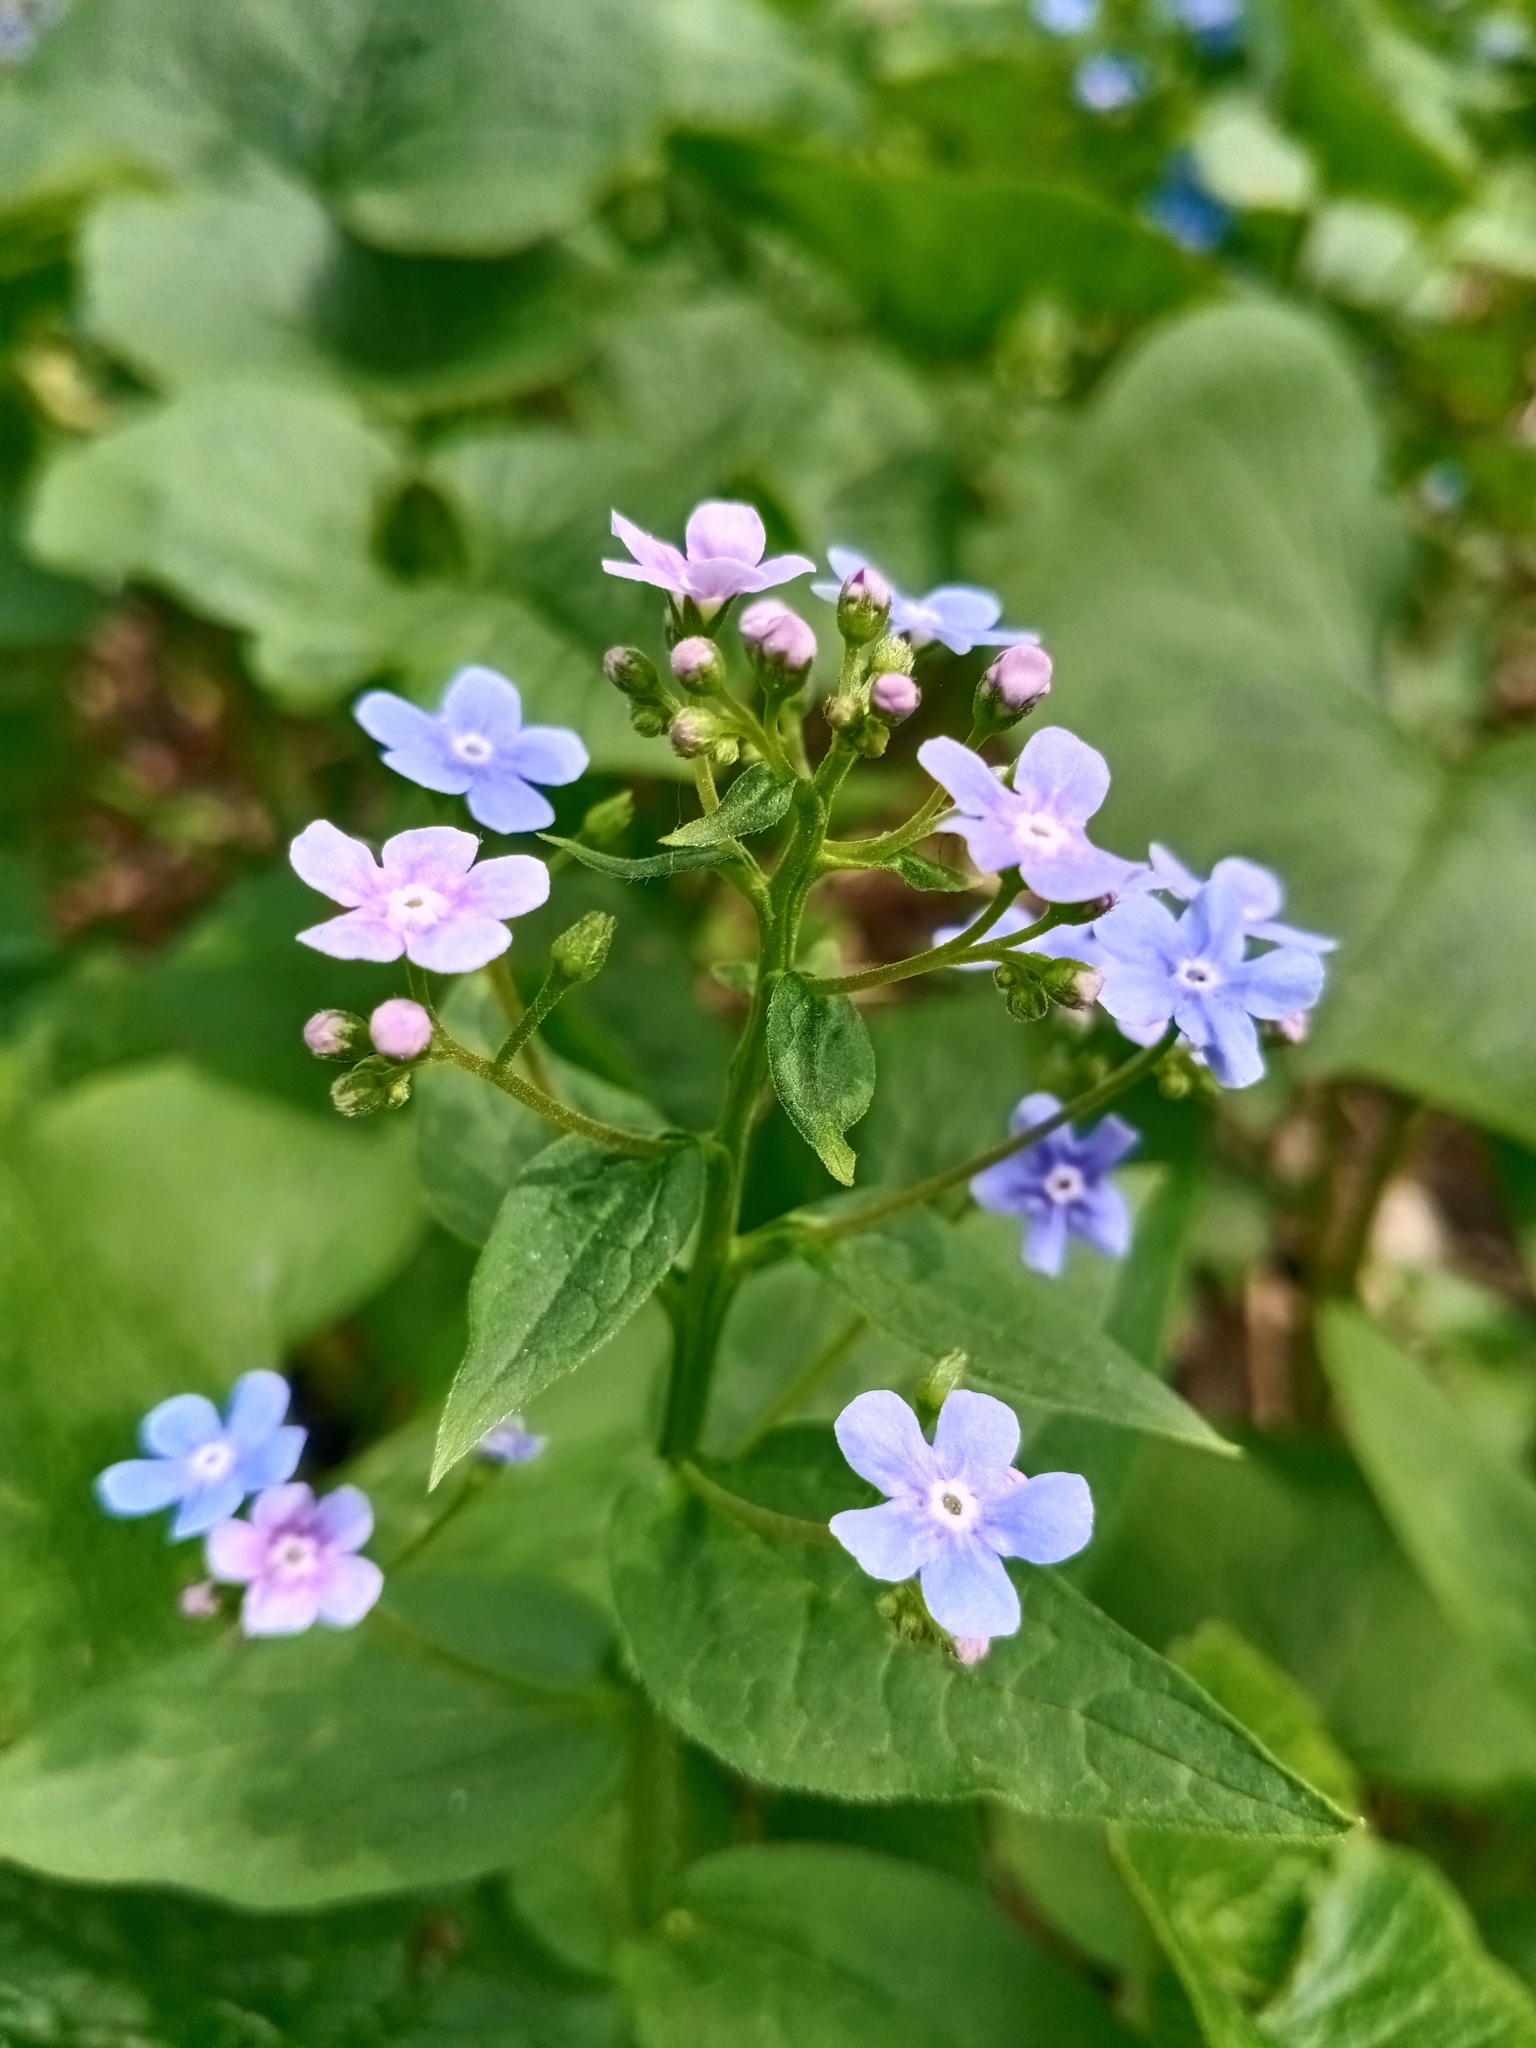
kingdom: Plantae
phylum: Tracheophyta
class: Magnoliopsida
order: Boraginales
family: Boraginaceae
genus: Brunnera
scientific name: Brunnera sibirica
